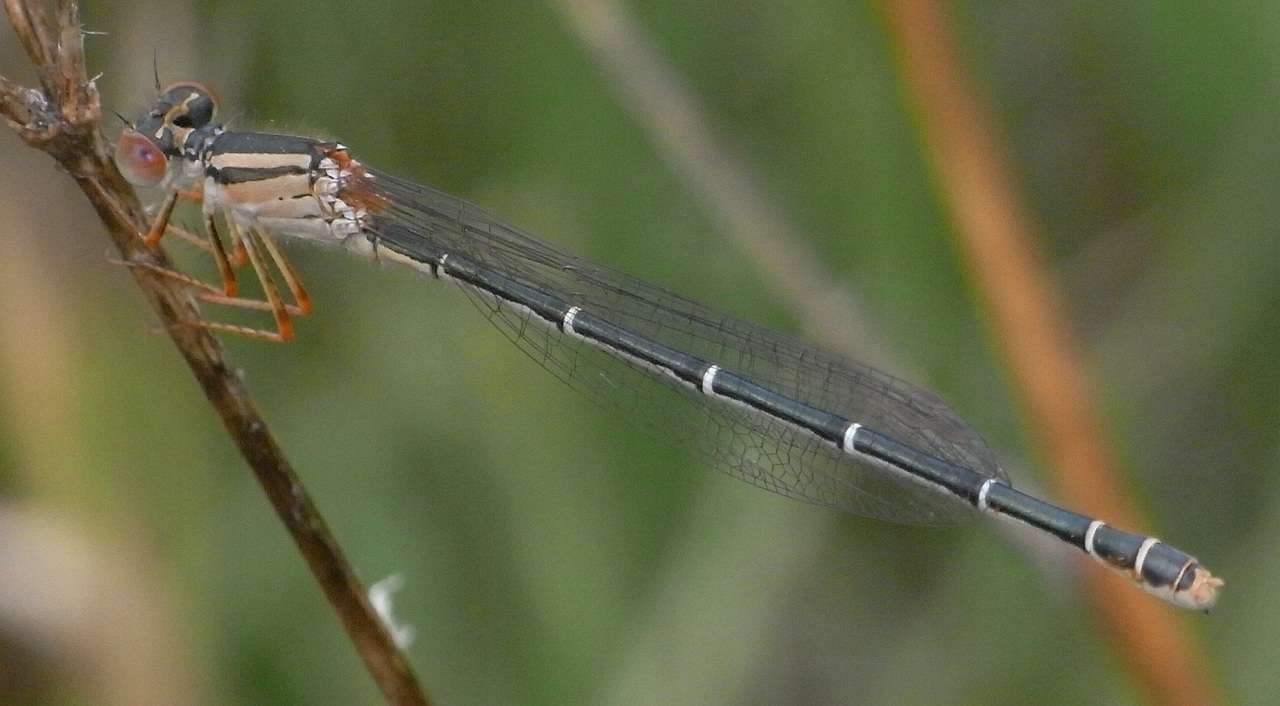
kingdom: Animalia
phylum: Arthropoda
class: Insecta
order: Odonata
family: Coenagrionidae
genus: Xanthagrion
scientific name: Xanthagrion erythroneurum
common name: Red and blue damsel
